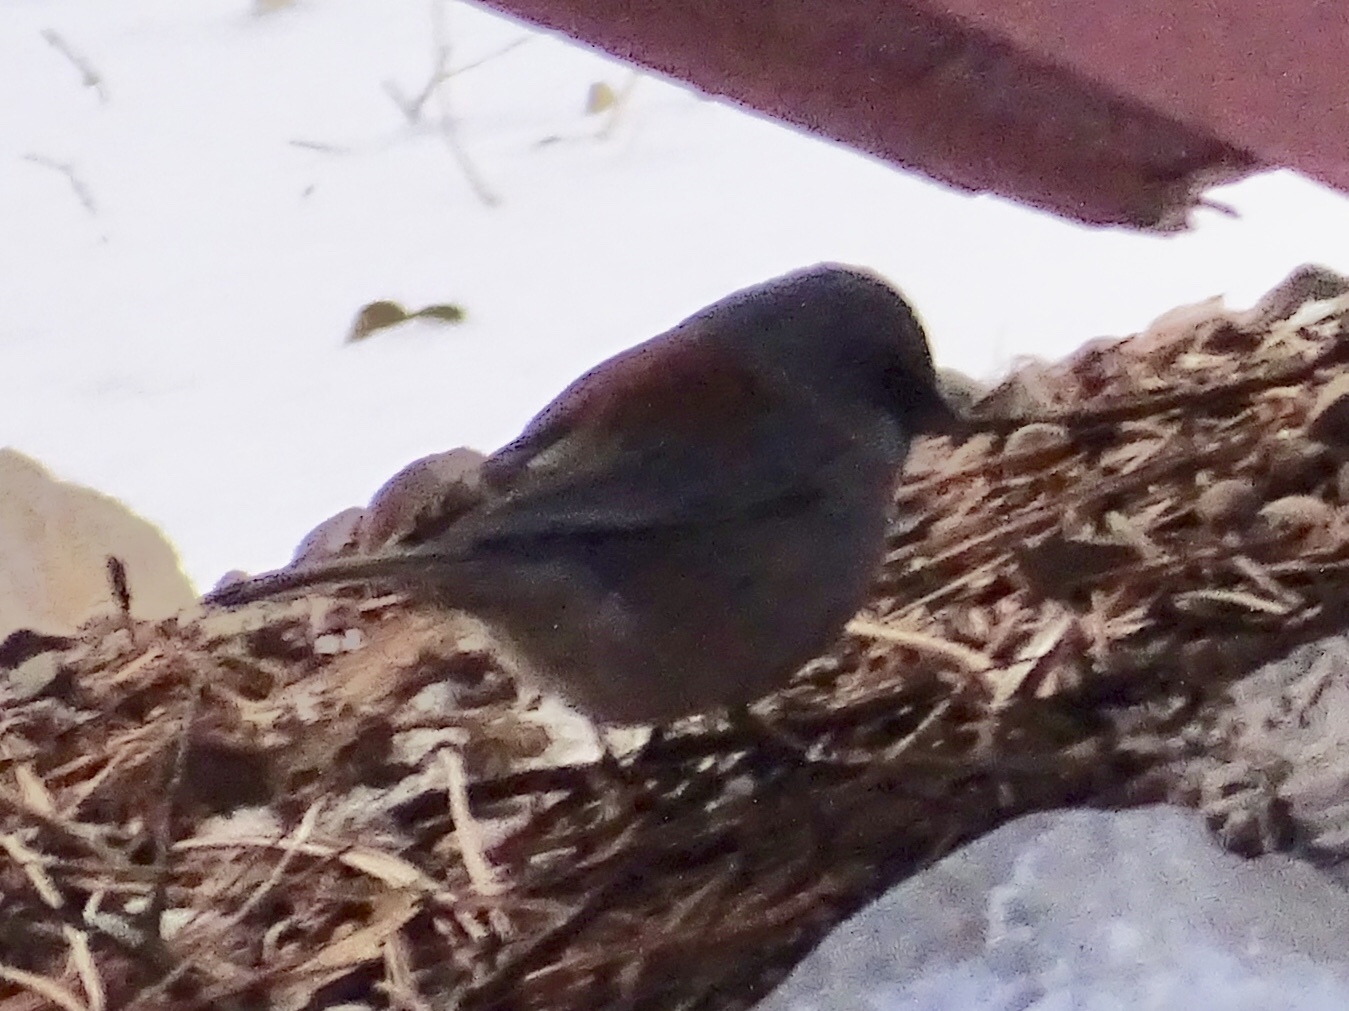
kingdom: Animalia
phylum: Chordata
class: Aves
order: Passeriformes
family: Passerellidae
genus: Junco
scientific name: Junco hyemalis
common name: Dark-eyed junco
